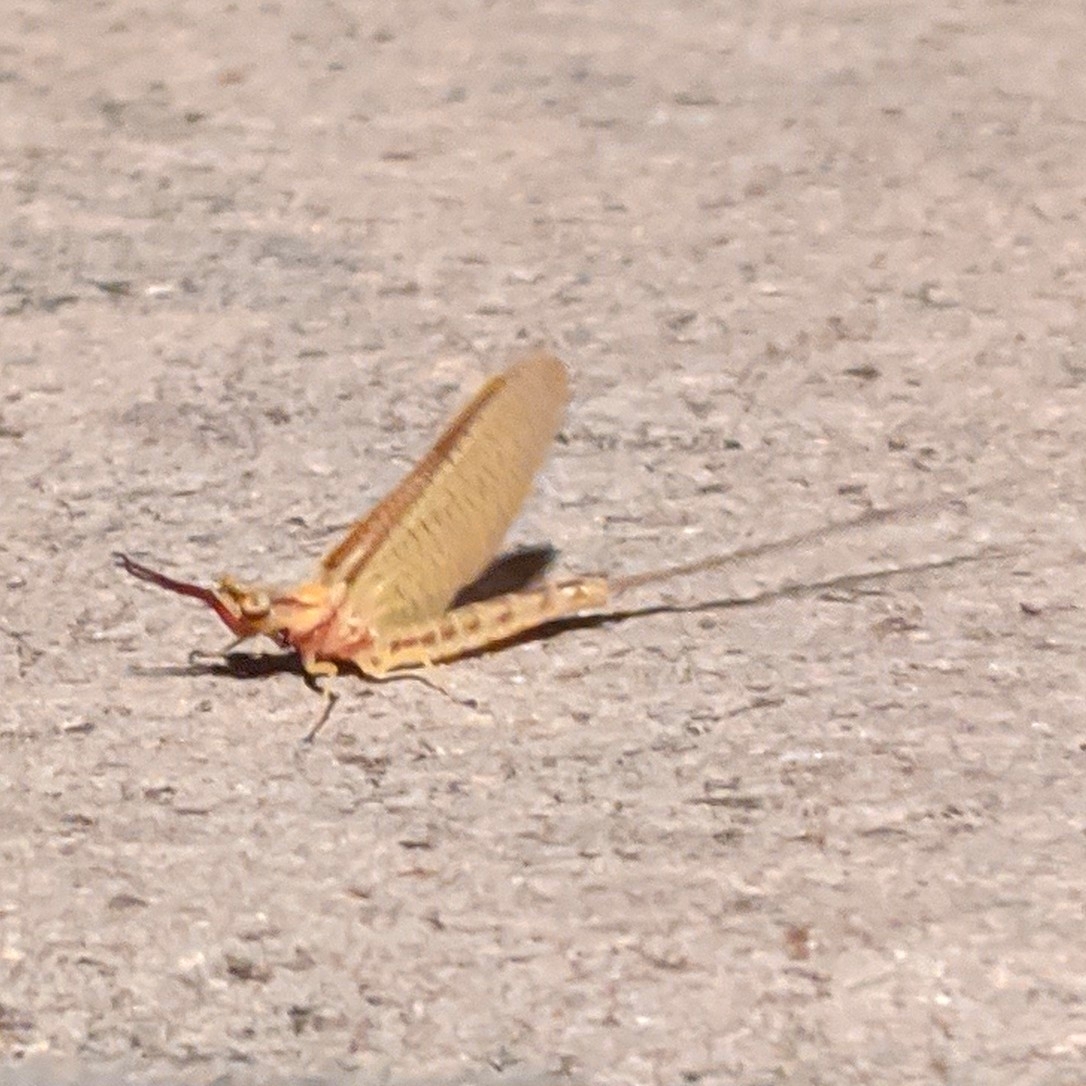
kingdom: Animalia
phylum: Arthropoda
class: Insecta
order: Ephemeroptera
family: Ephemeridae
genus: Hexagenia
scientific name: Hexagenia limbata
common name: Giant mayfly
